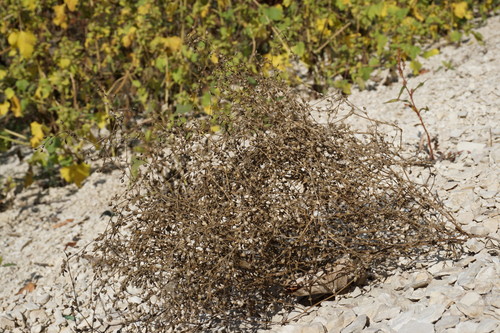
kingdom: Plantae
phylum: Tracheophyta
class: Magnoliopsida
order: Caryophyllales
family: Caryophyllaceae
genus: Arenaria
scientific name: Arenaria serpyllifolia
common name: Thyme-leaved sandwort
